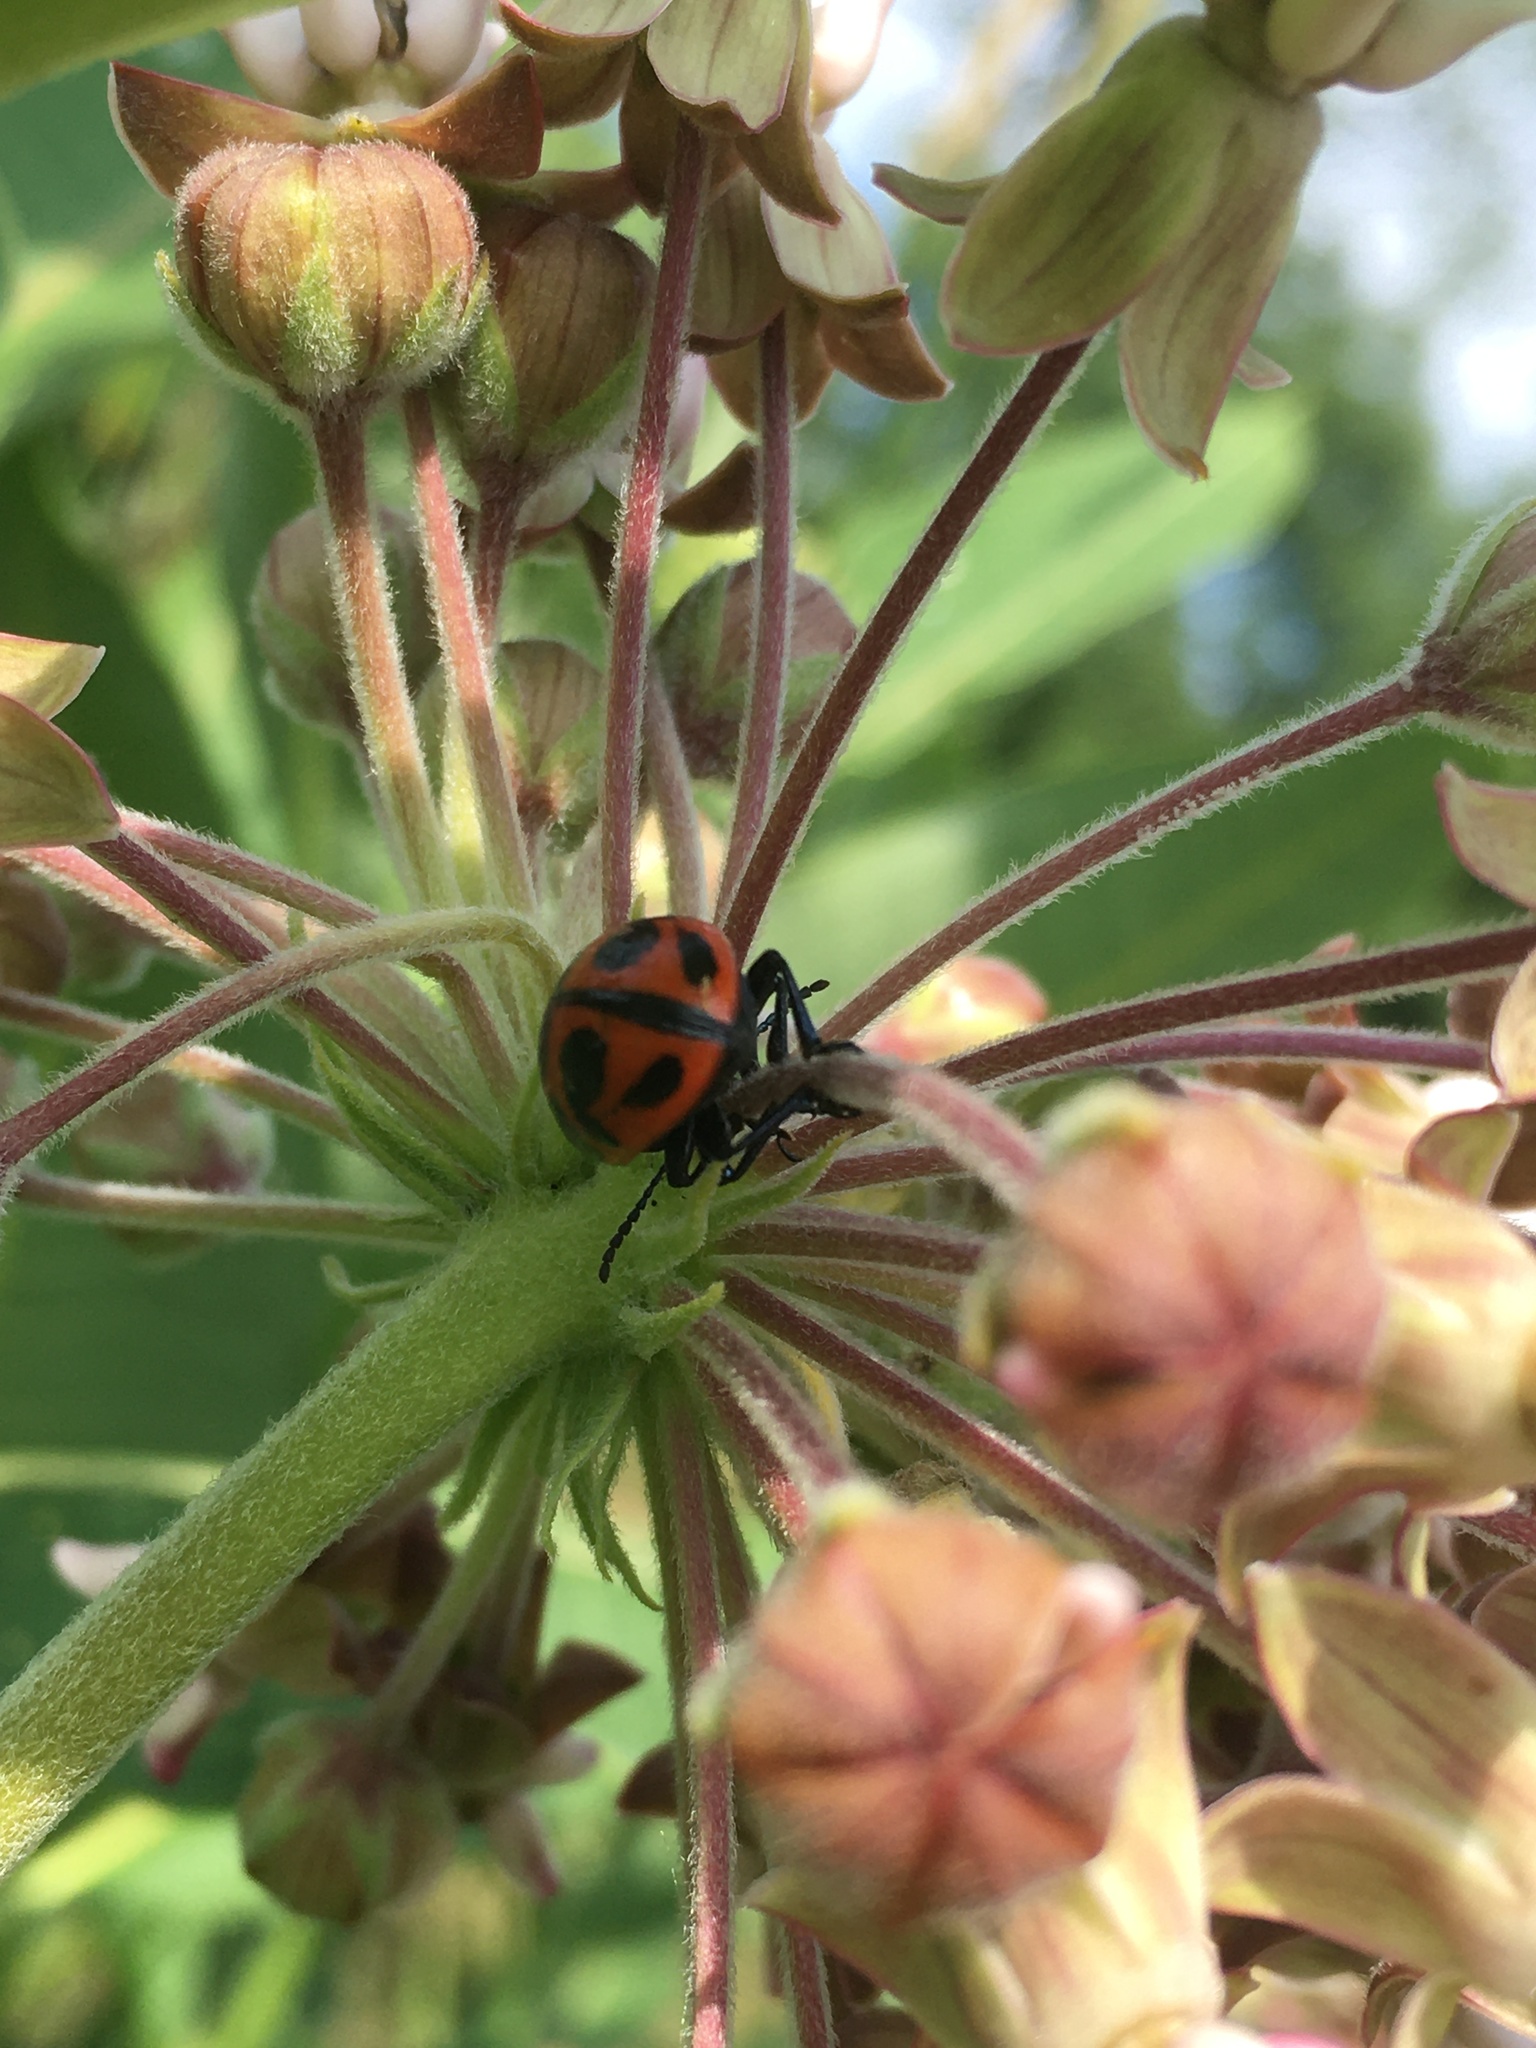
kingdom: Animalia
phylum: Arthropoda
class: Insecta
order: Coleoptera
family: Chrysomelidae
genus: Labidomera
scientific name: Labidomera clivicollis
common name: Swamp milkweed leaf beetle
